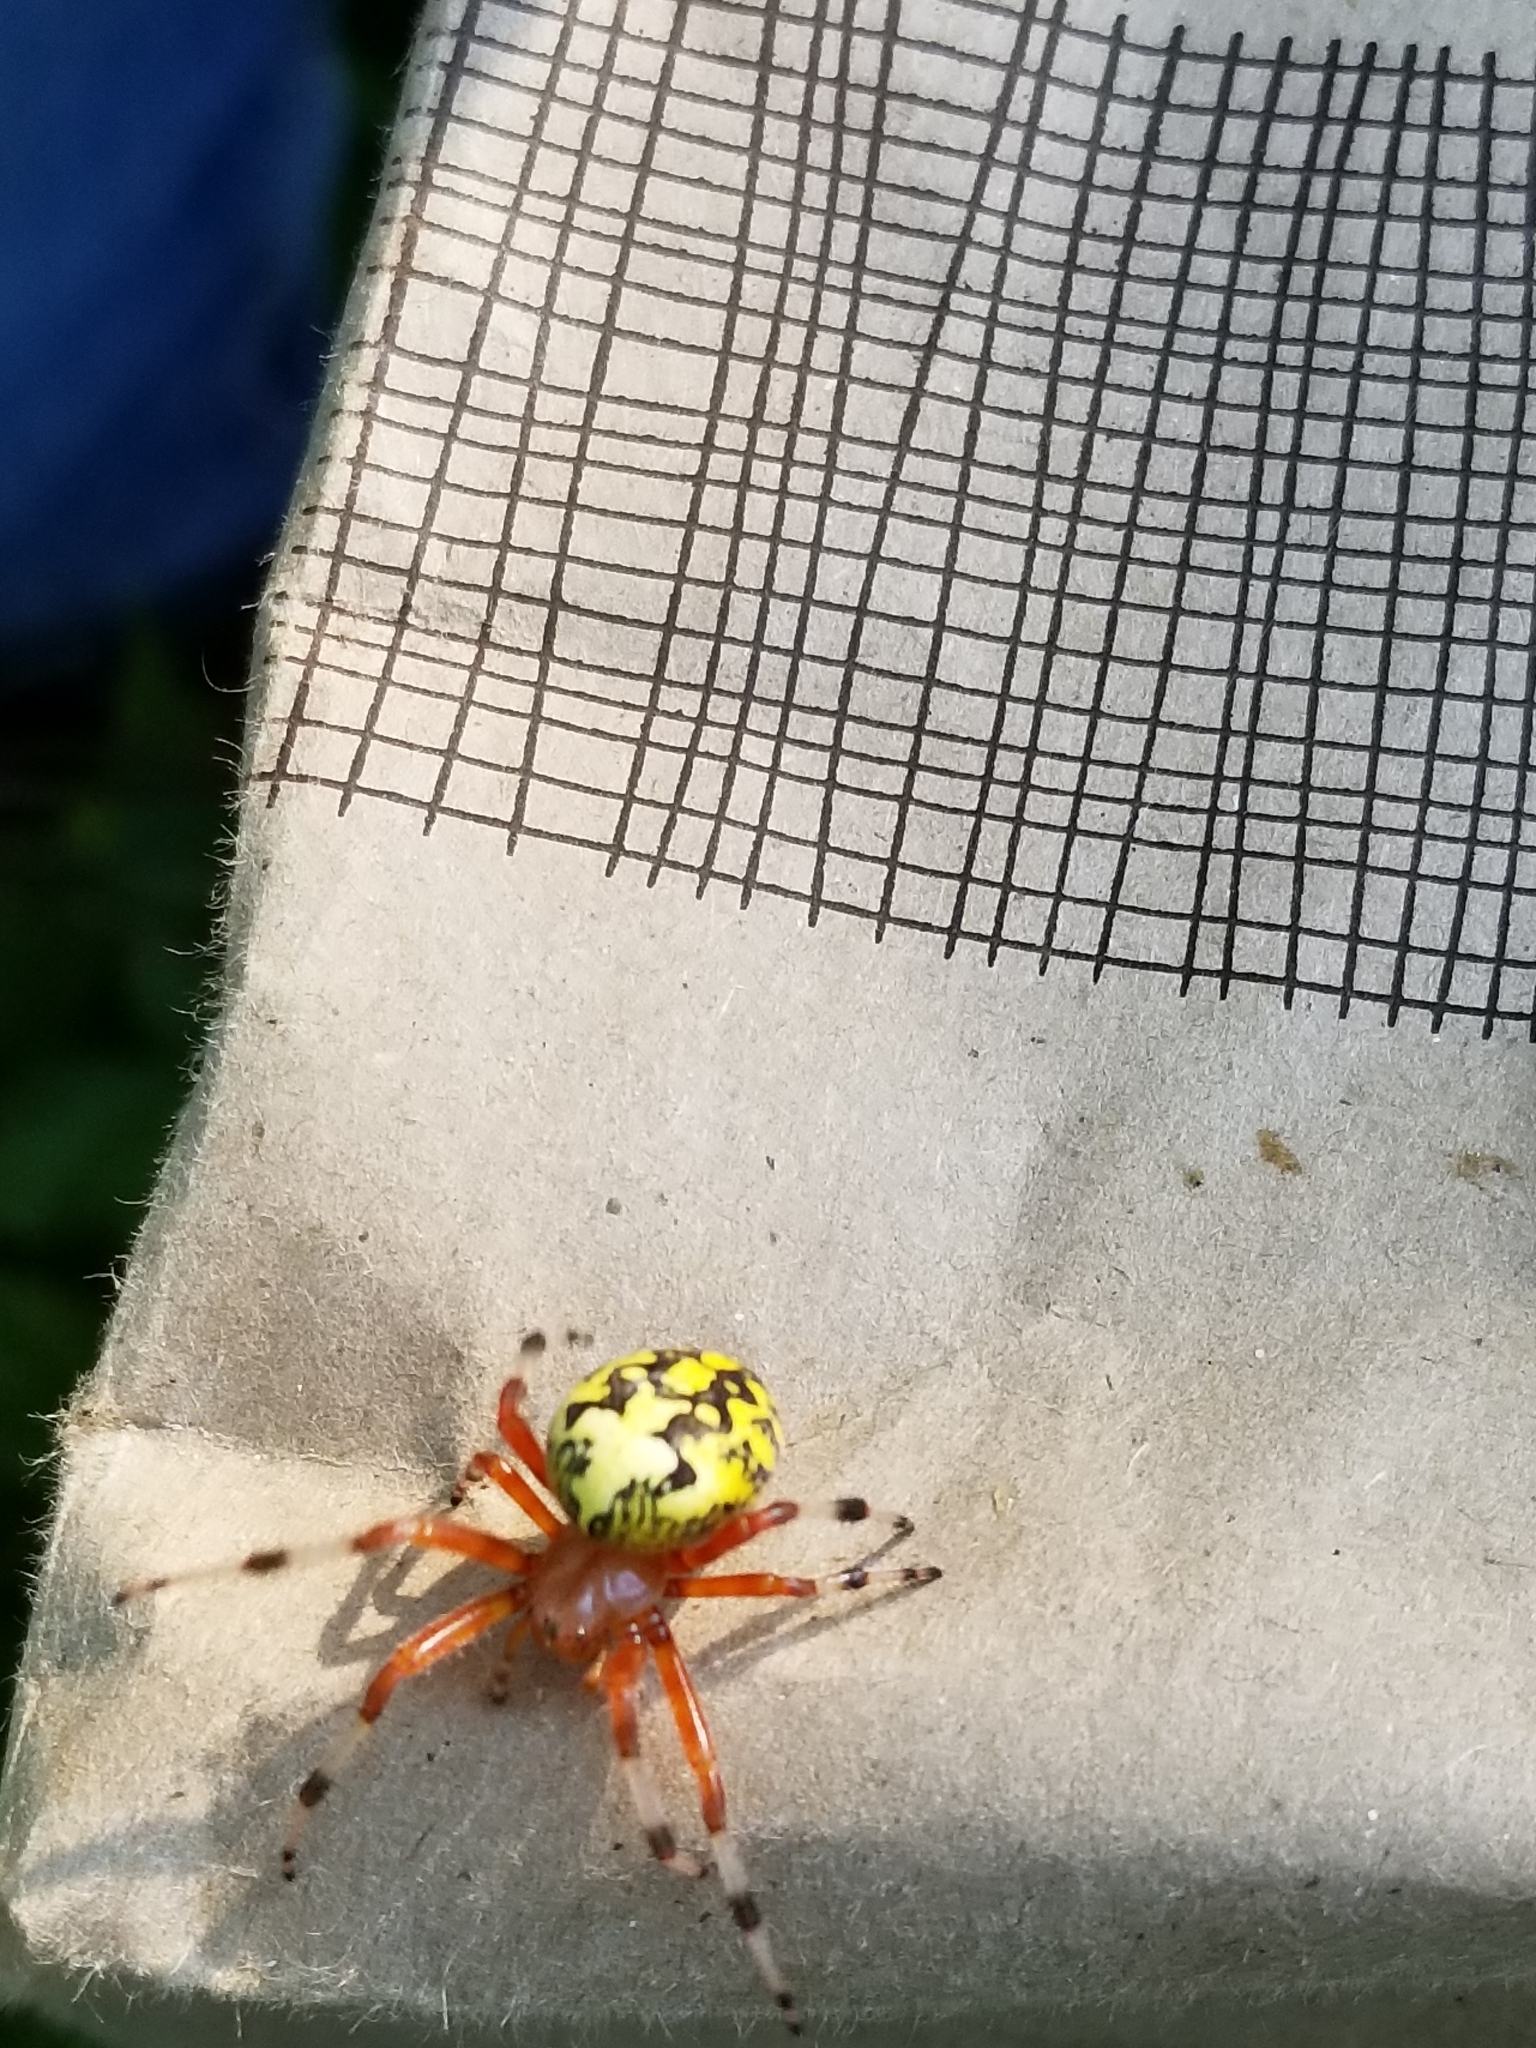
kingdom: Animalia
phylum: Arthropoda
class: Arachnida
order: Araneae
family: Araneidae
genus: Araneus
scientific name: Araneus marmoreus
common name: Marbled orbweaver
